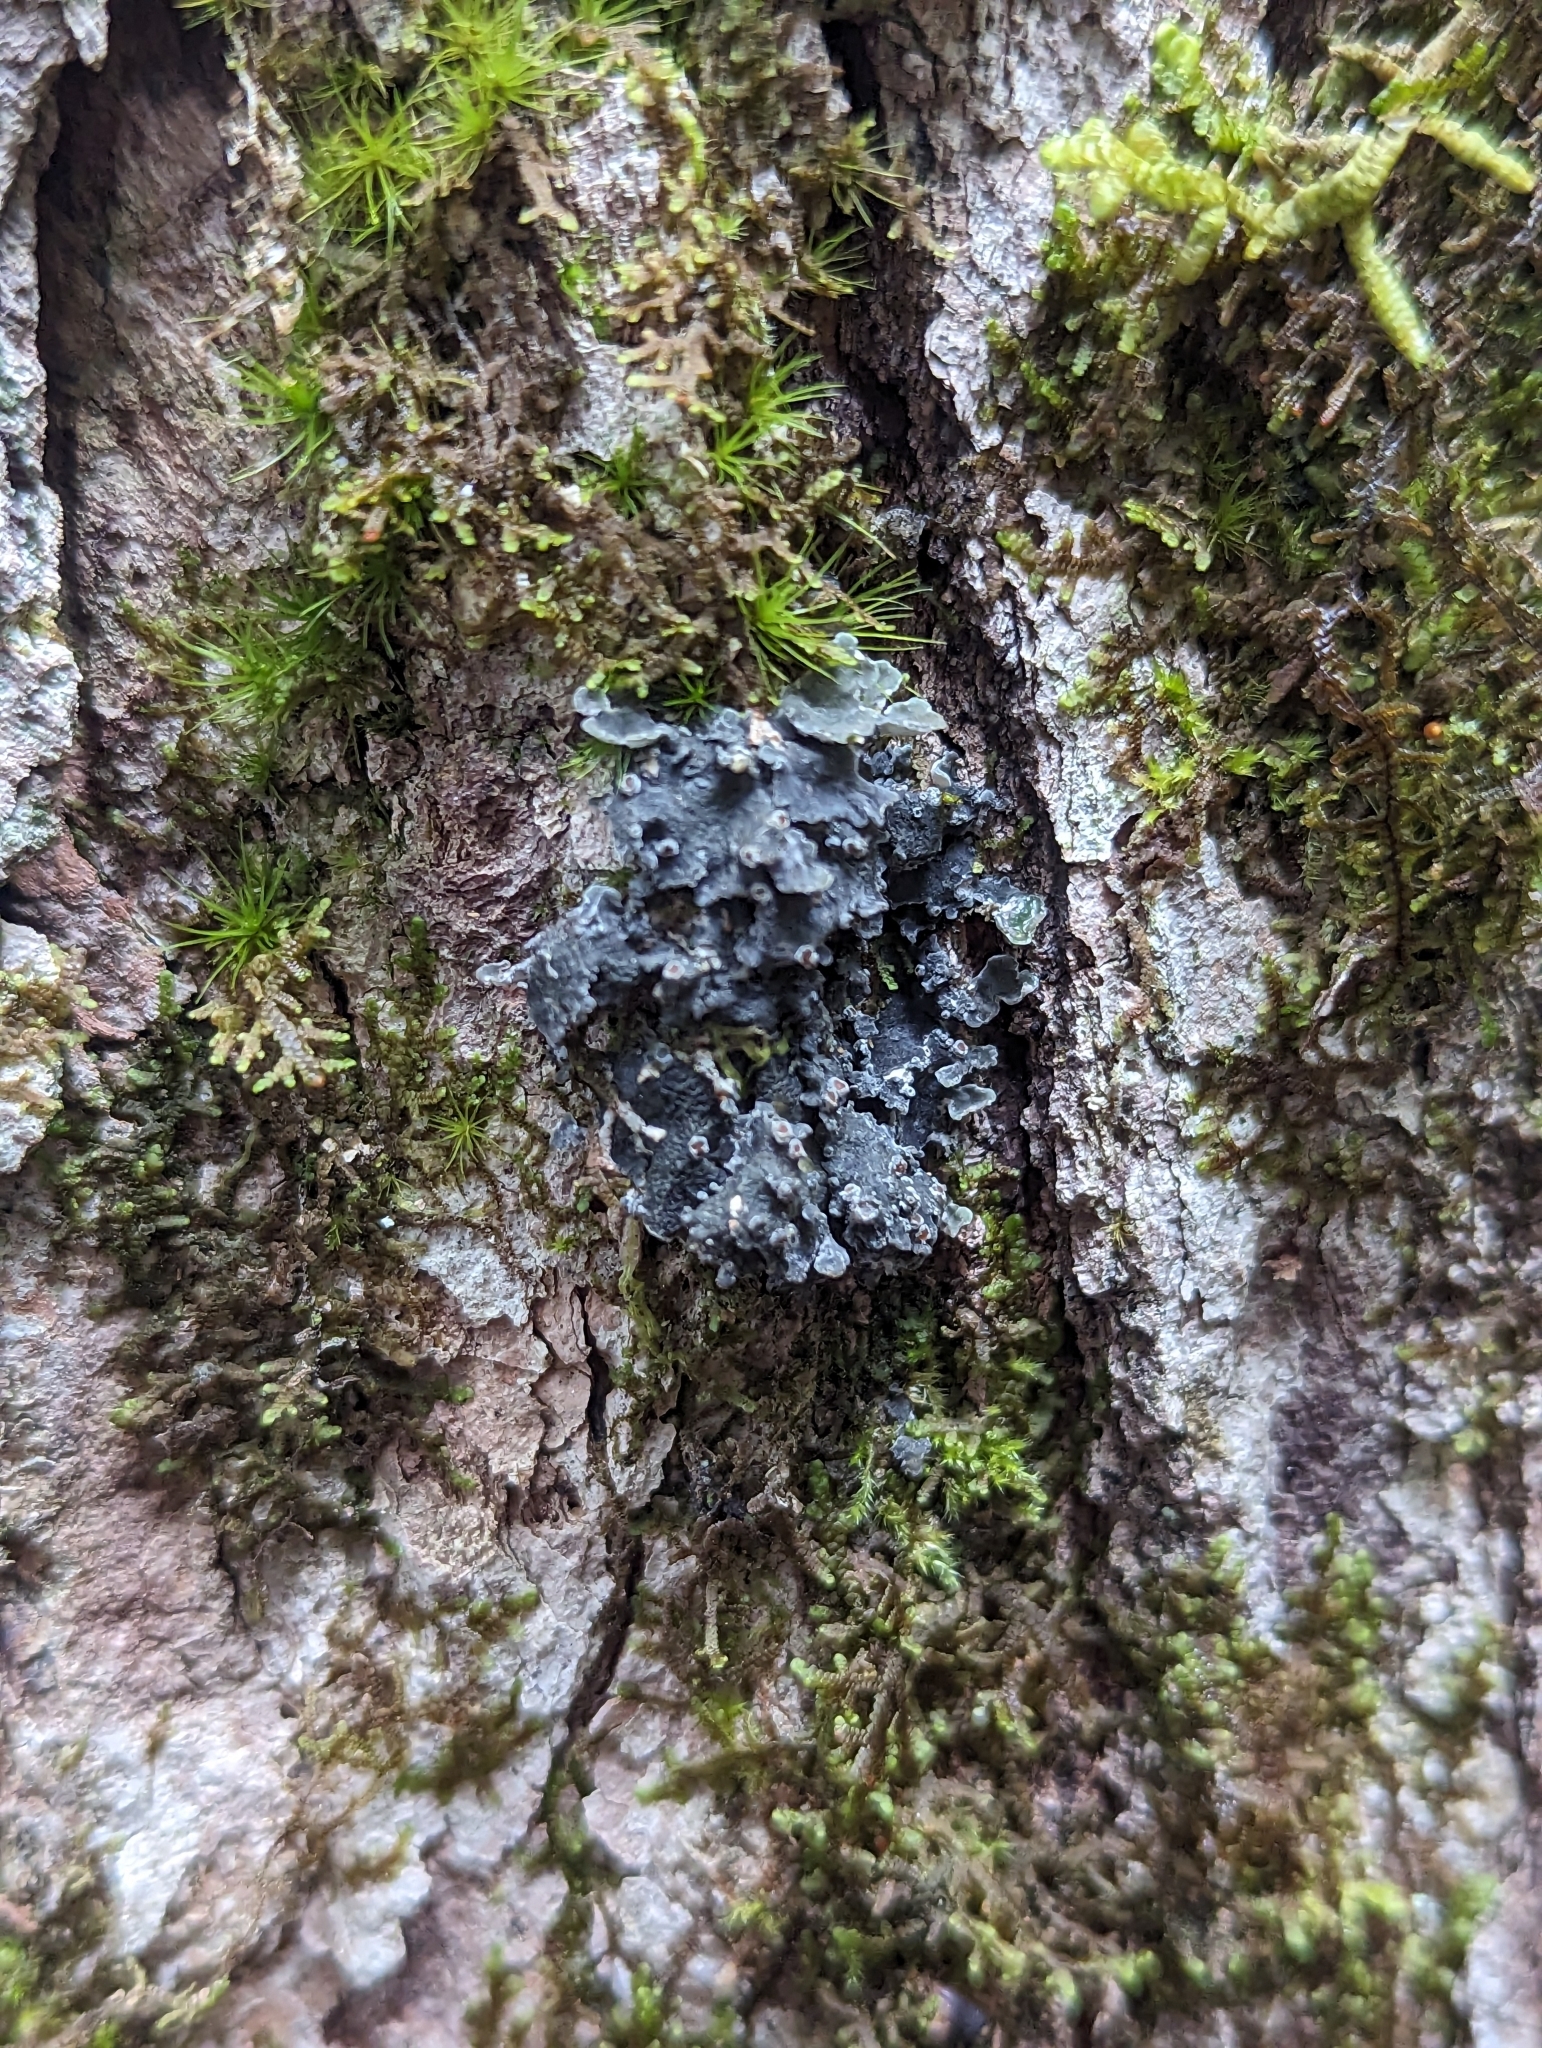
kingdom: Fungi
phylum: Ascomycota
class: Lecanoromycetes
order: Peltigerales
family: Pannariaceae
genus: Pannaria
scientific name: Pannaria lurida
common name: Wrinkled shingle lichen
